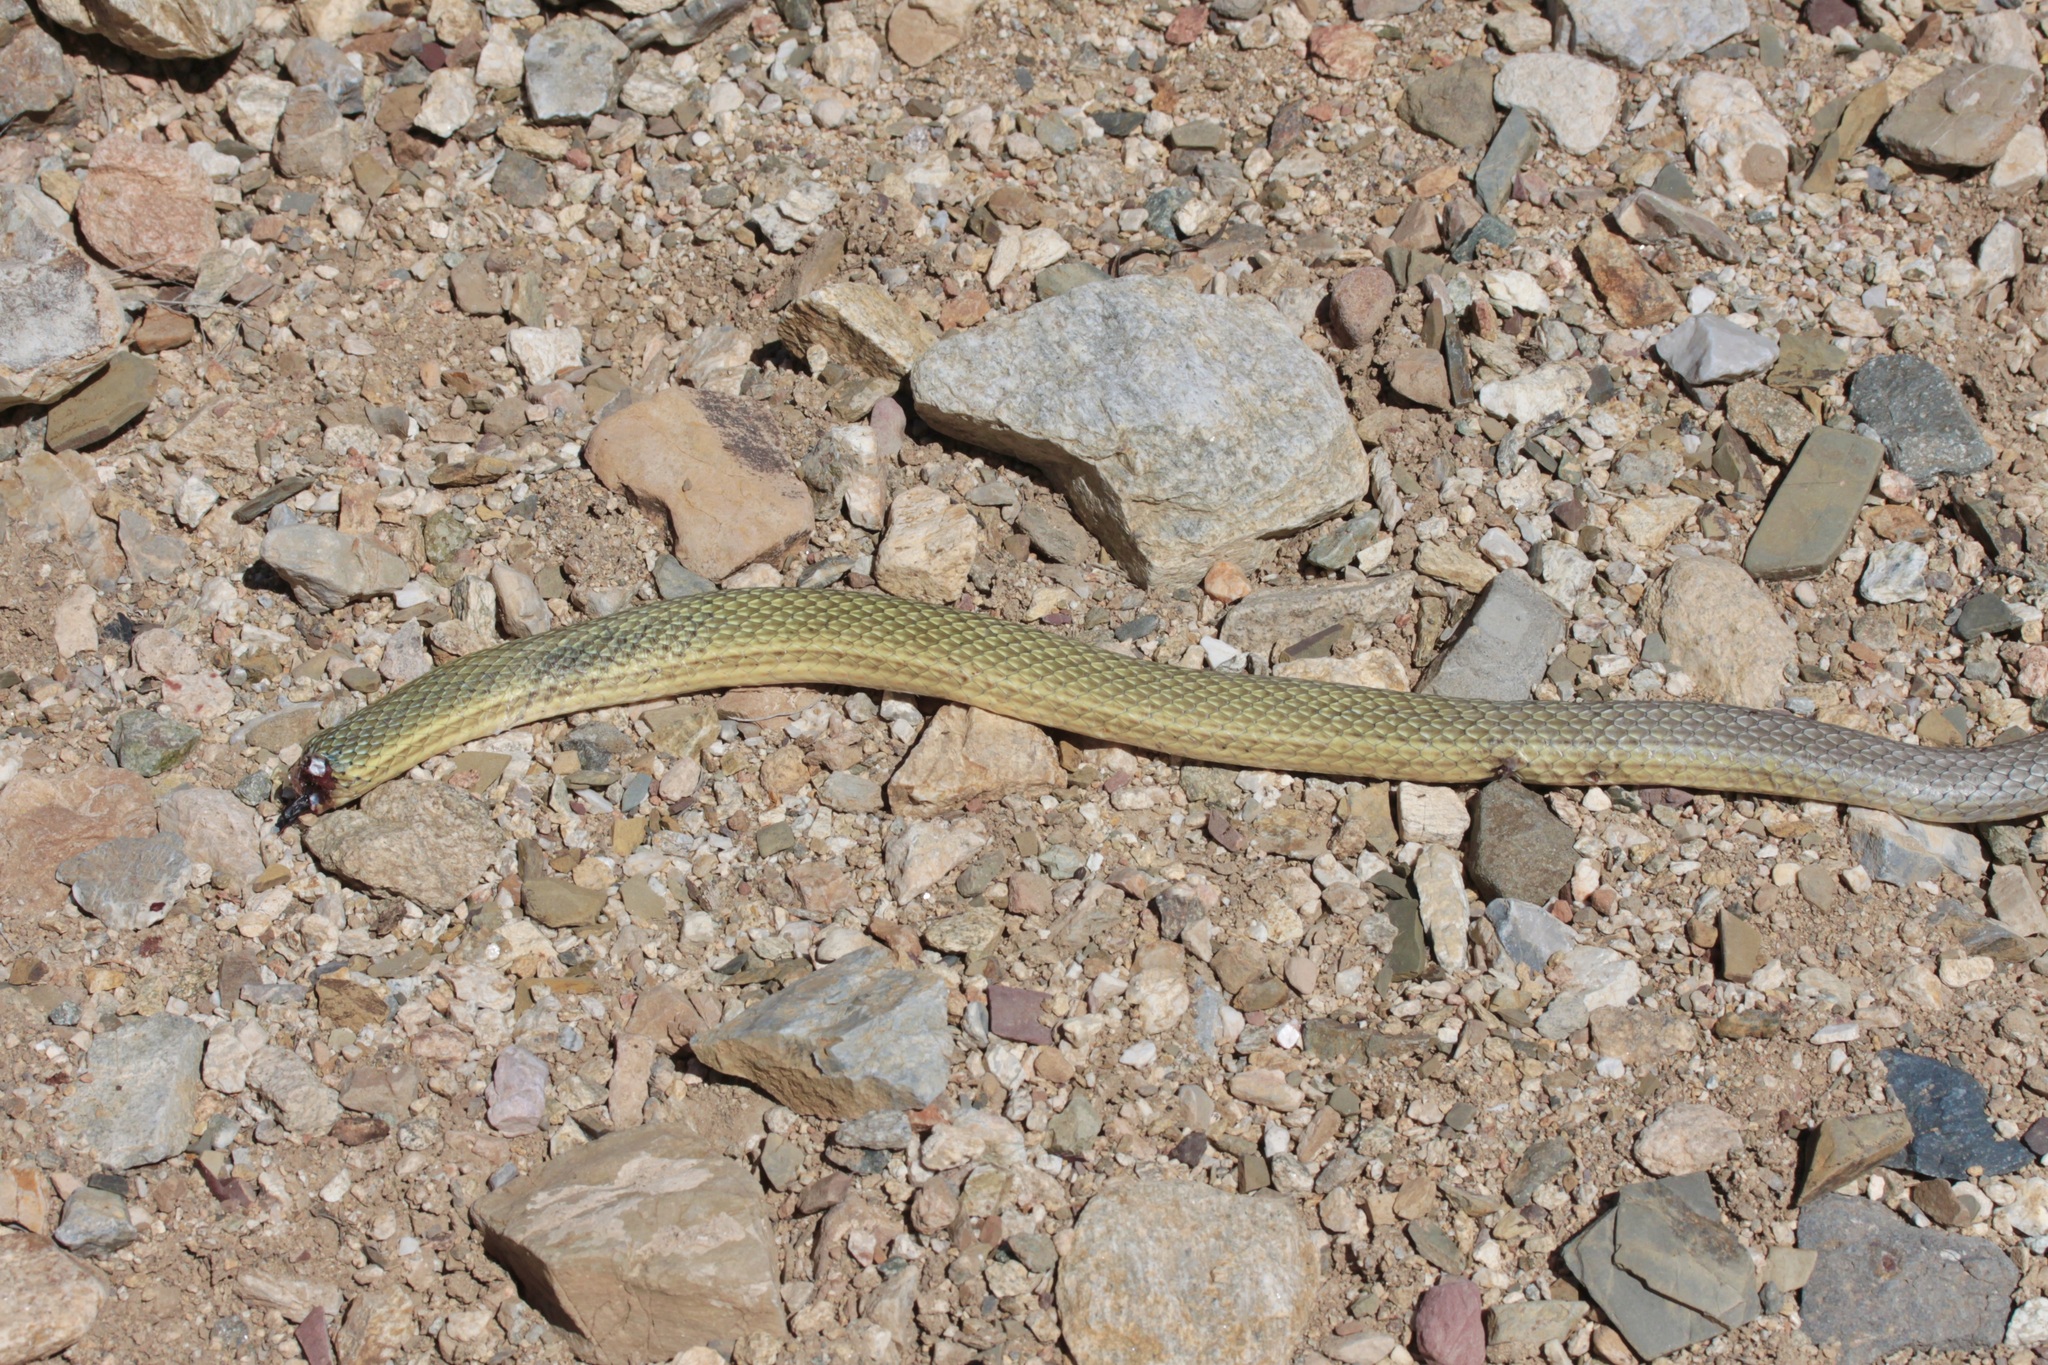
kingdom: Animalia
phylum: Chordata
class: Squamata
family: Colubridae
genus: Masticophis
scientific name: Masticophis bilineatus
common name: Sonoran whipsnake
